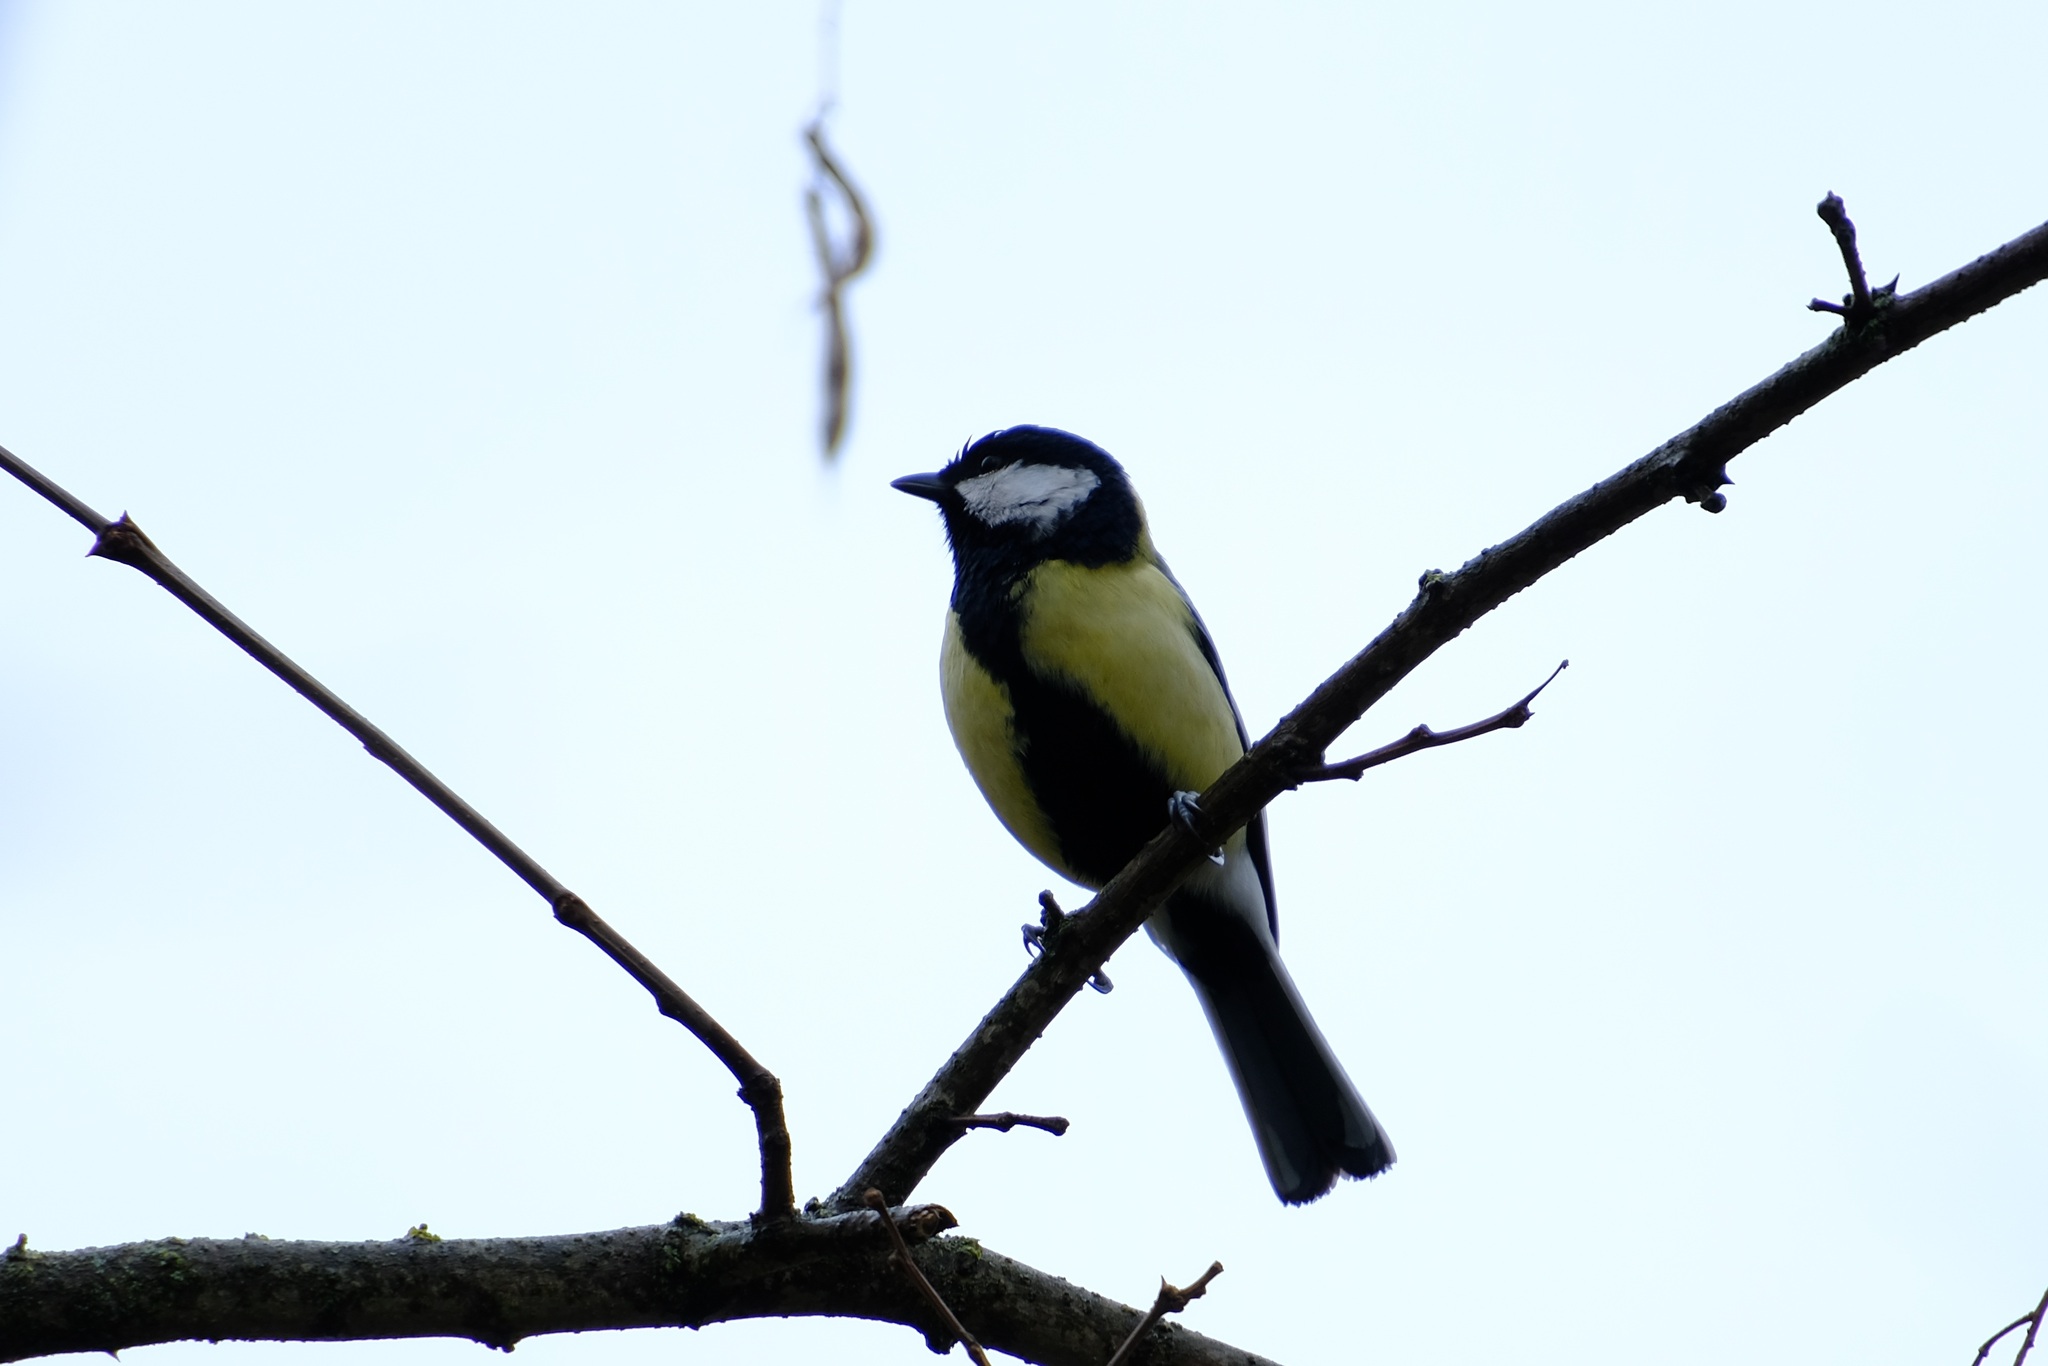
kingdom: Animalia
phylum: Chordata
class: Aves
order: Passeriformes
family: Paridae
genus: Parus
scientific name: Parus major
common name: Great tit
